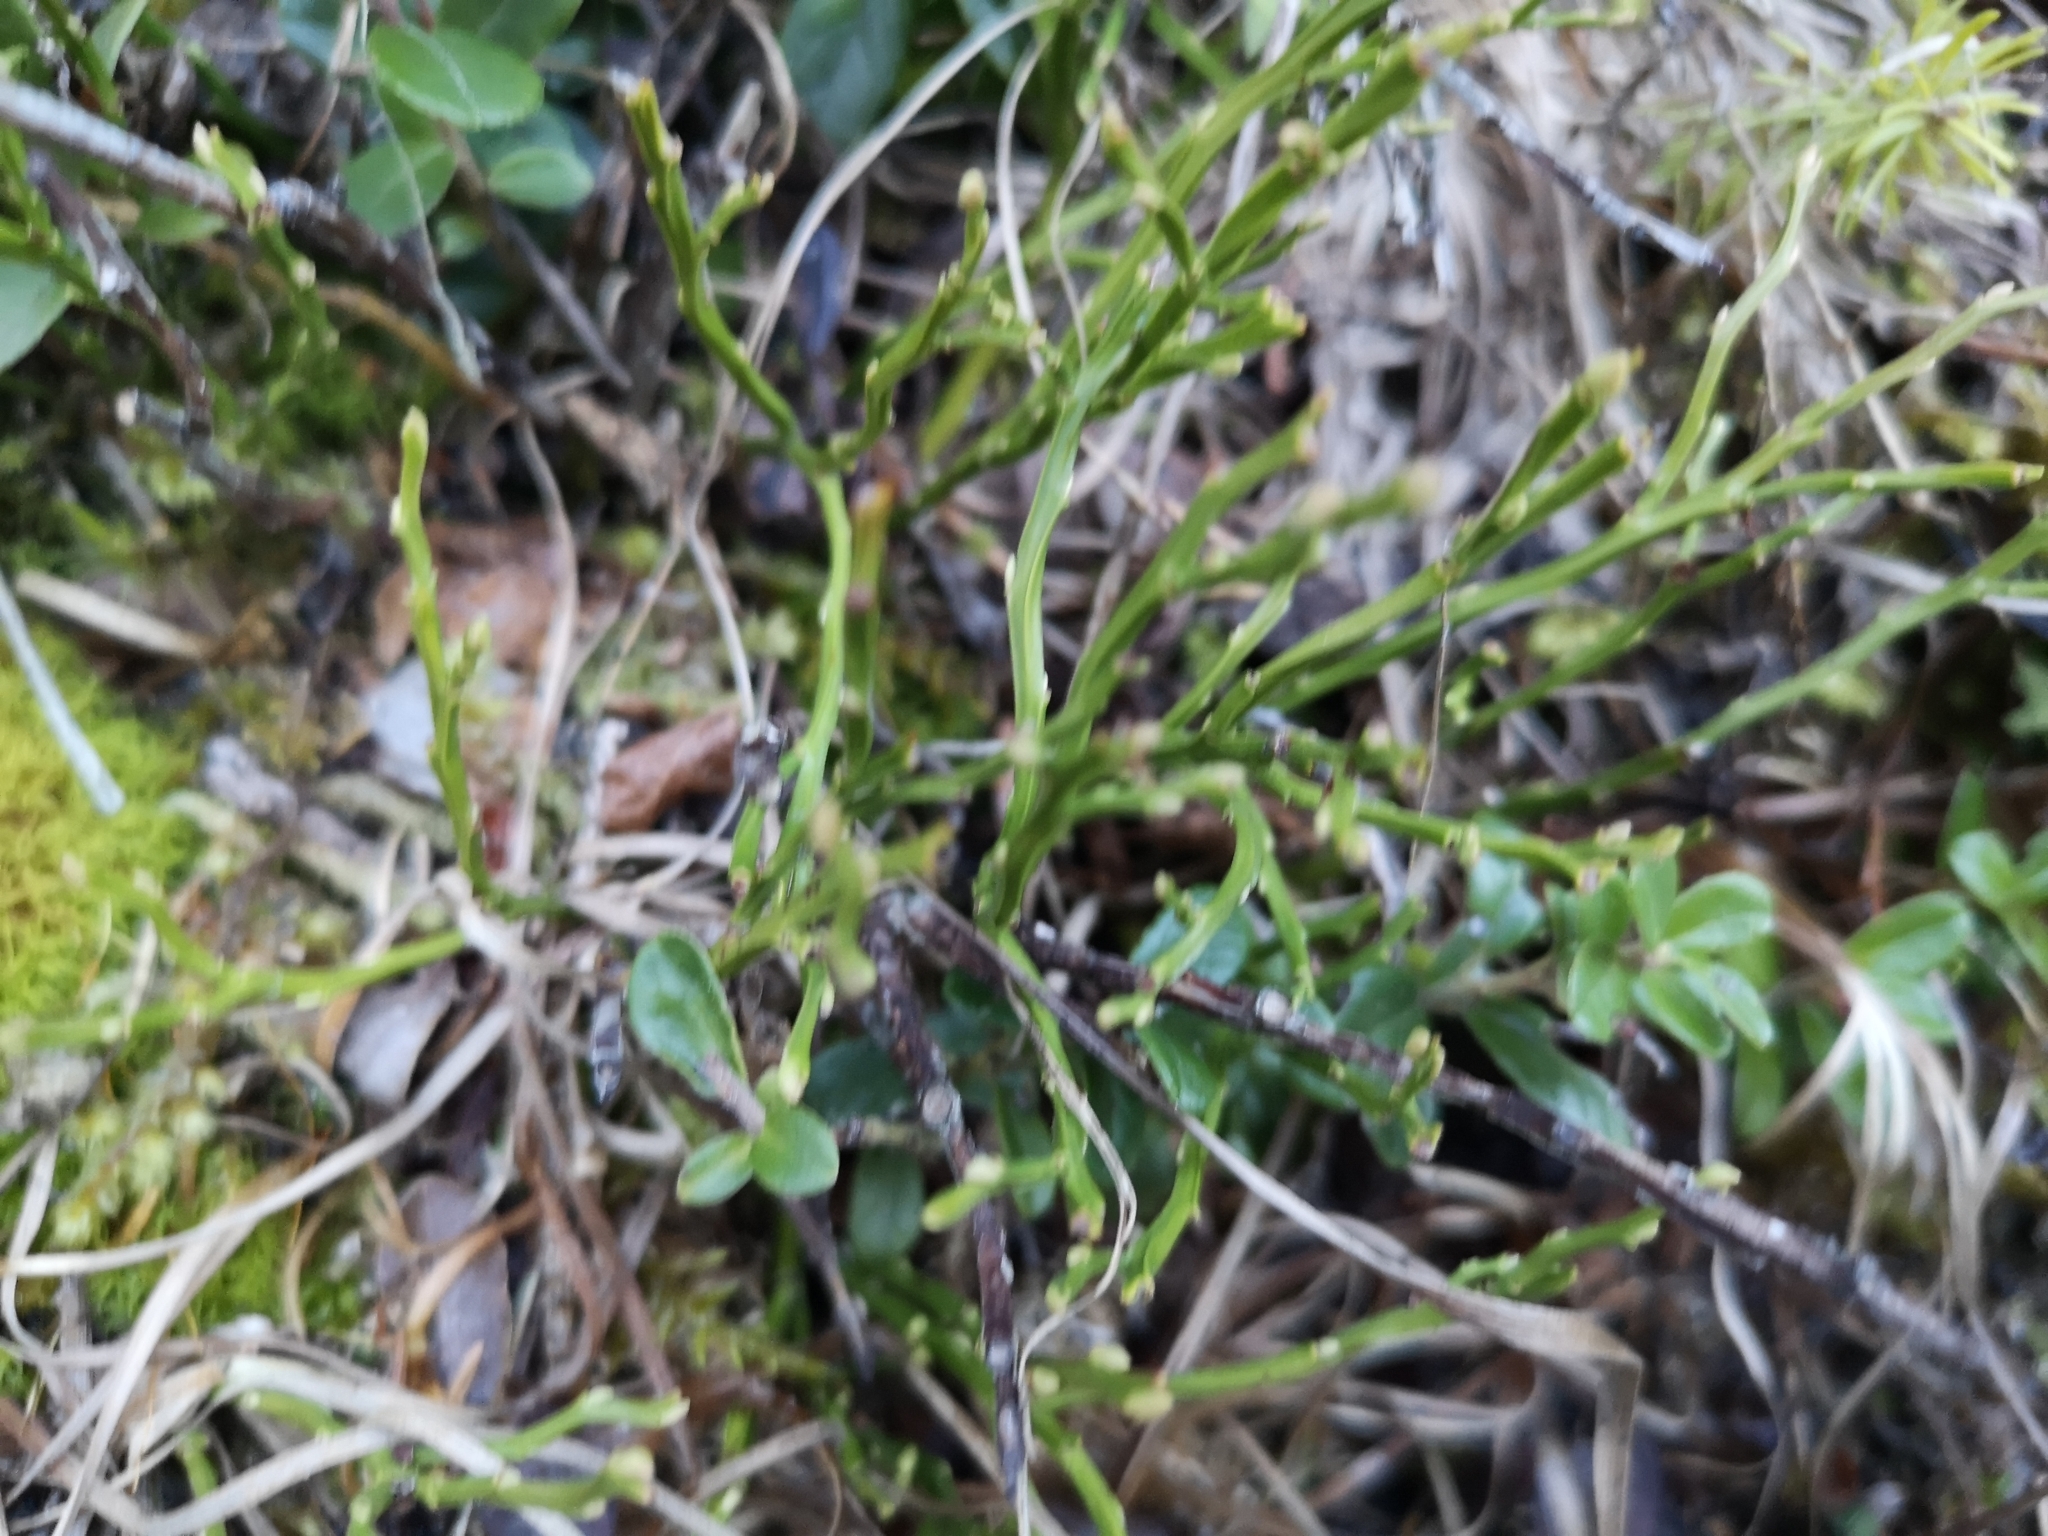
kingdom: Plantae
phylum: Tracheophyta
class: Magnoliopsida
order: Ericales
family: Ericaceae
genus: Vaccinium
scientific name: Vaccinium myrtillus
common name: Bilberry
